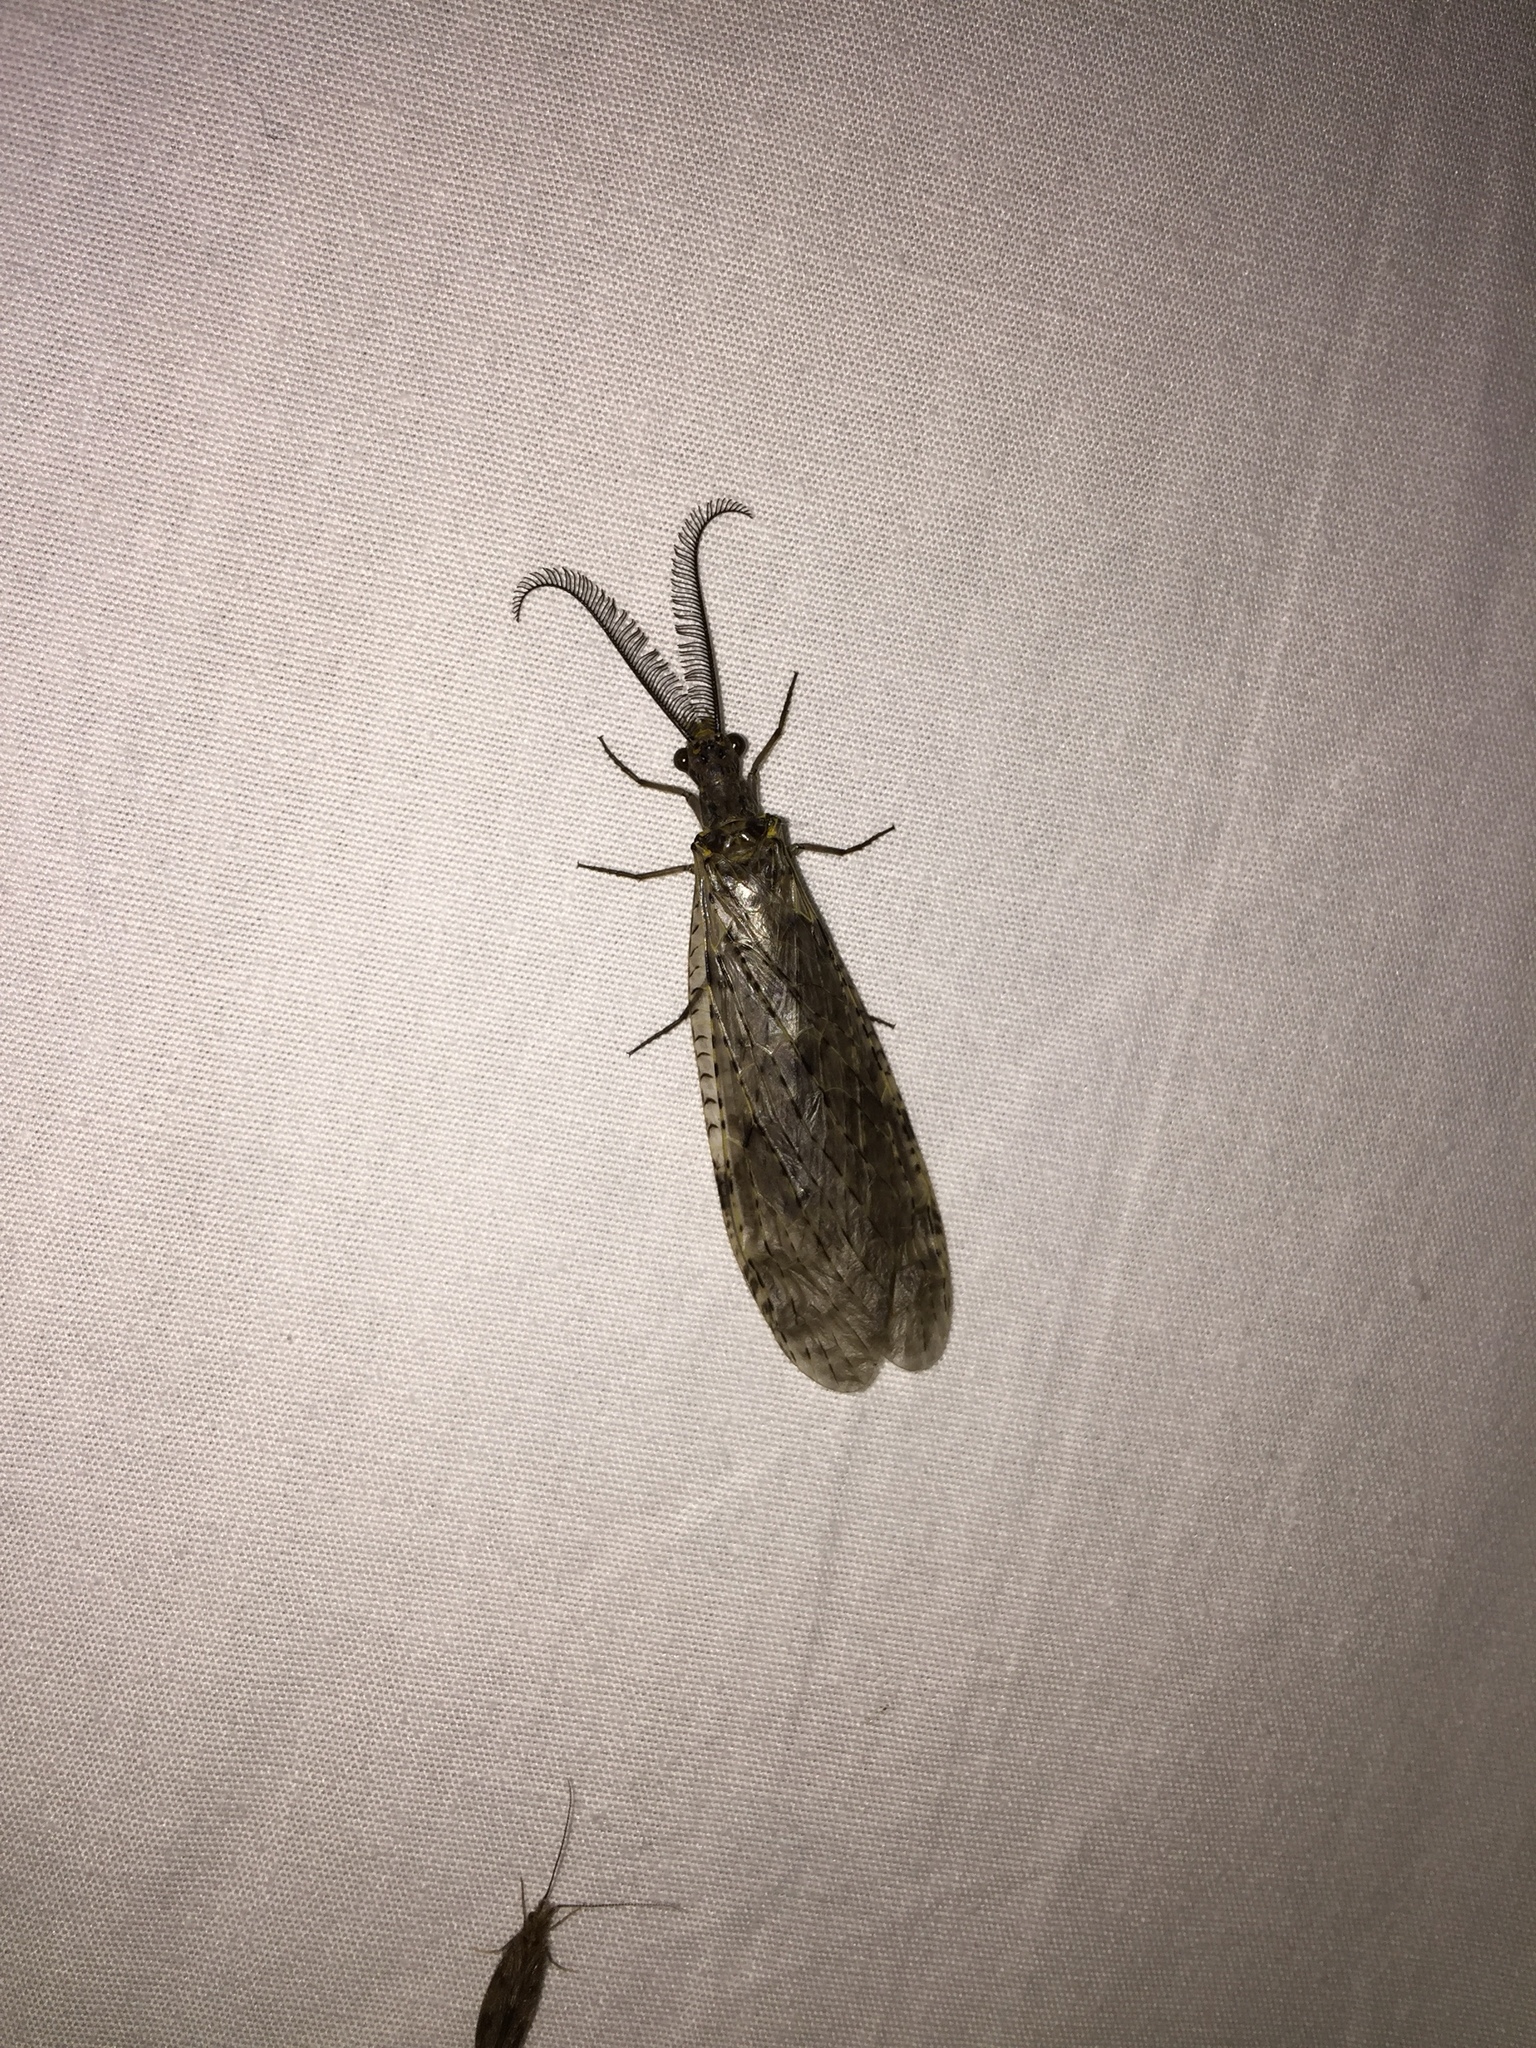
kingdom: Animalia
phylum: Arthropoda
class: Insecta
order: Megaloptera
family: Corydalidae
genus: Chauliodes
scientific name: Chauliodes rastricornis
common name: Spring fishfly
